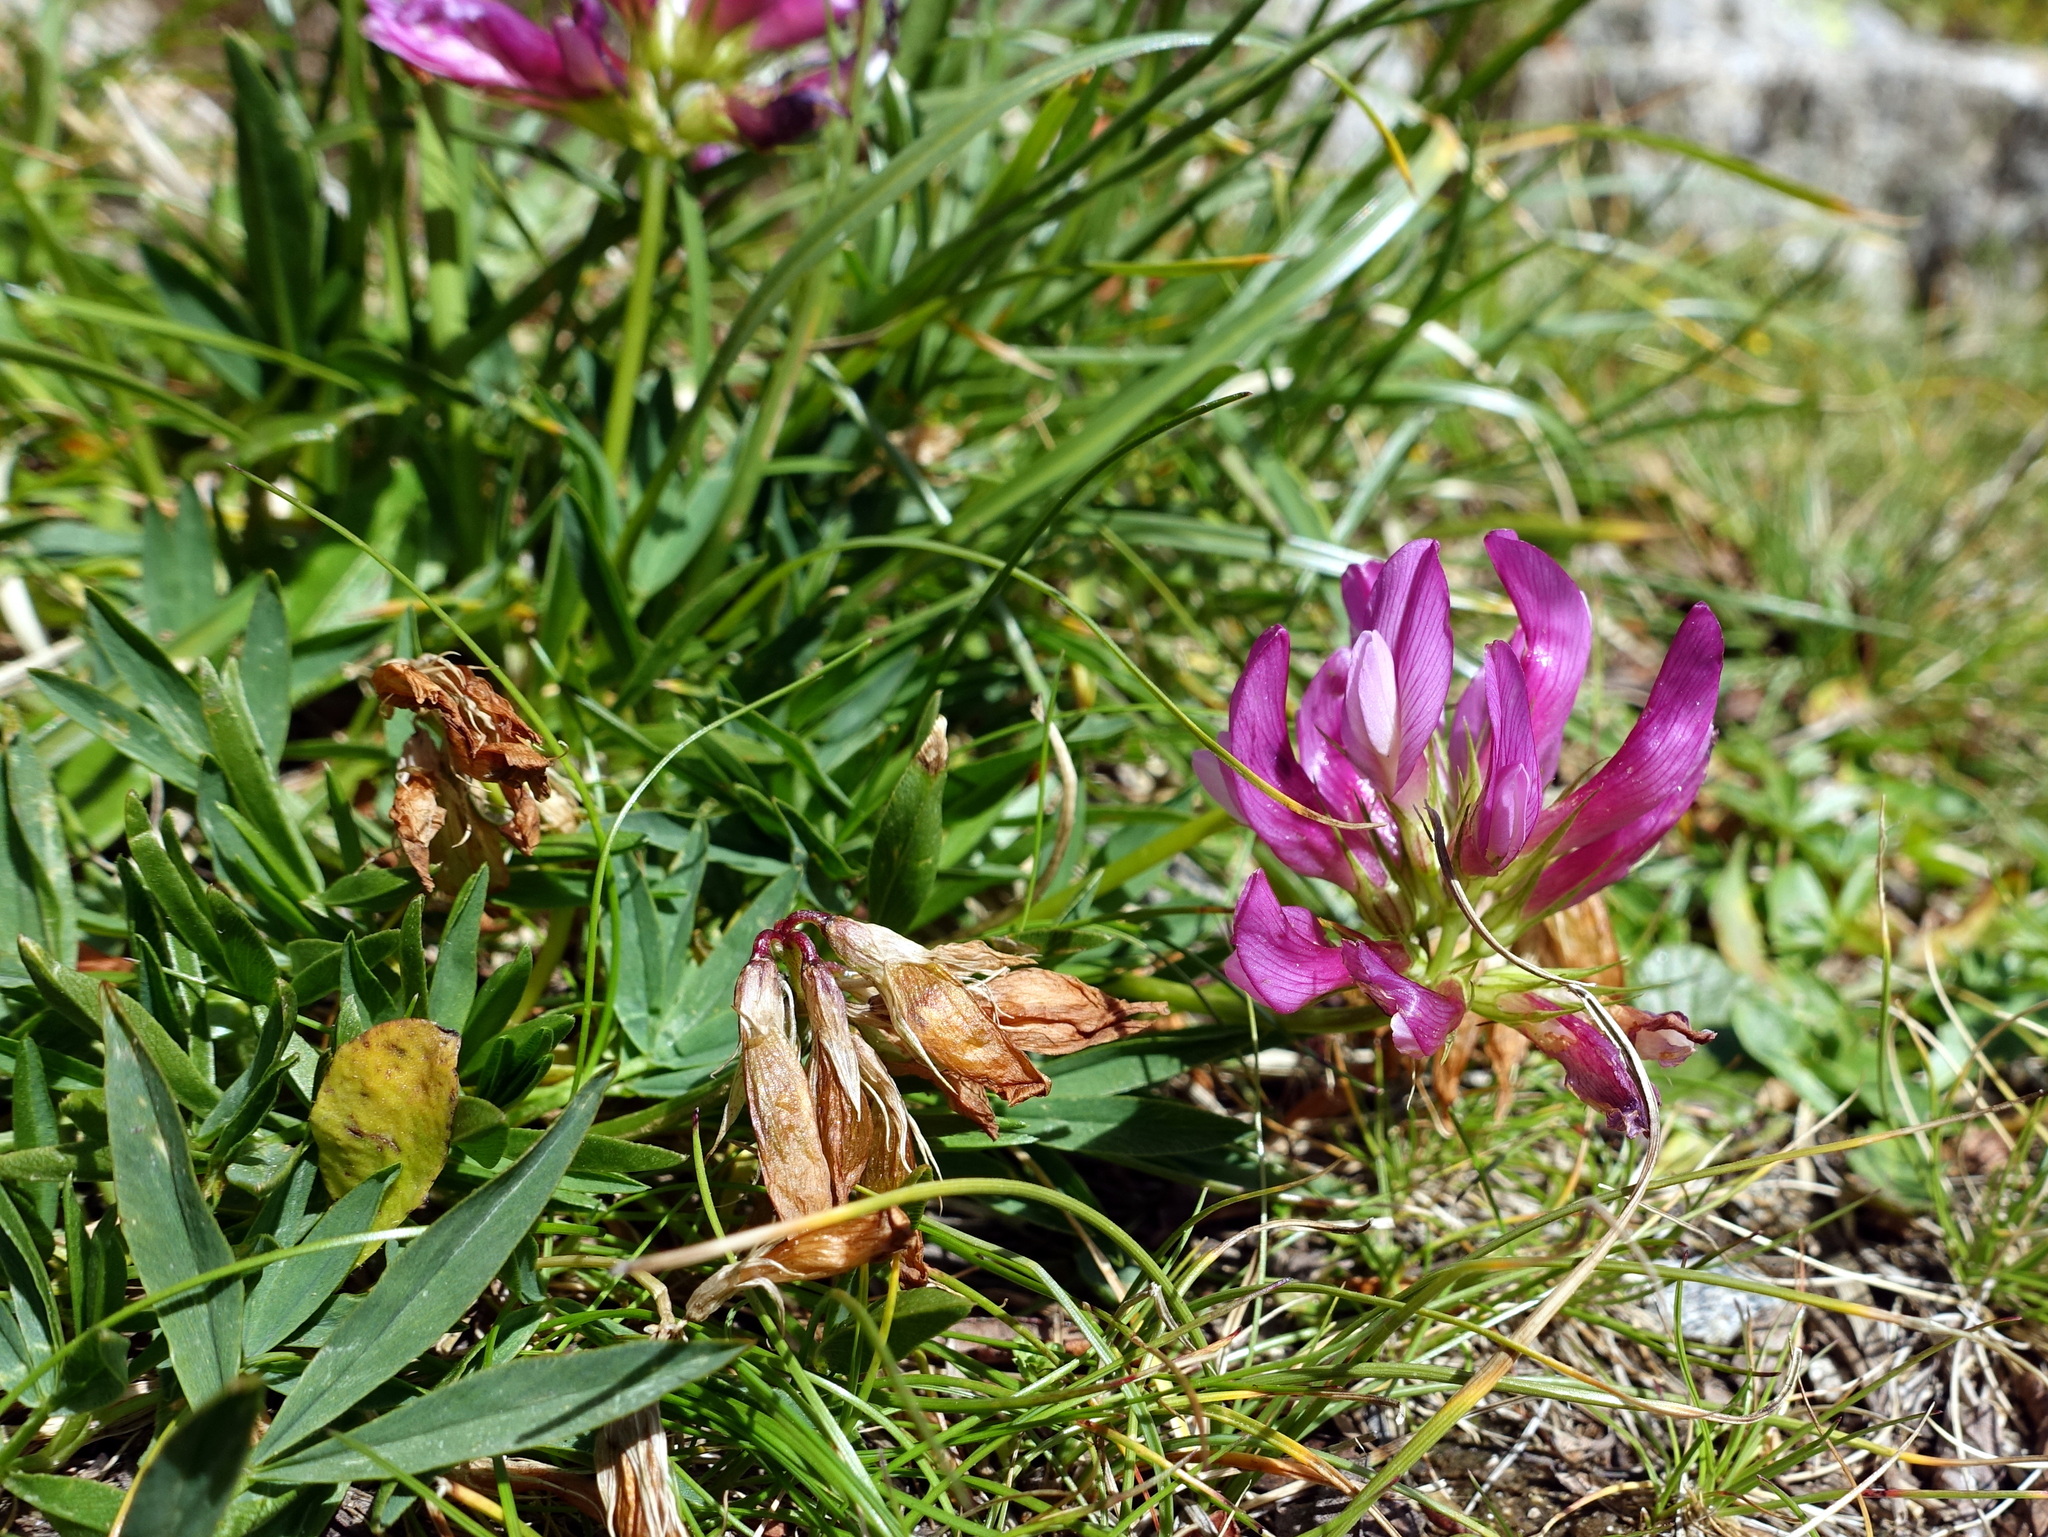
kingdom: Plantae
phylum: Tracheophyta
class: Magnoliopsida
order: Fabales
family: Fabaceae
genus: Trifolium
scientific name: Trifolium alpinum
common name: Alpine clover
